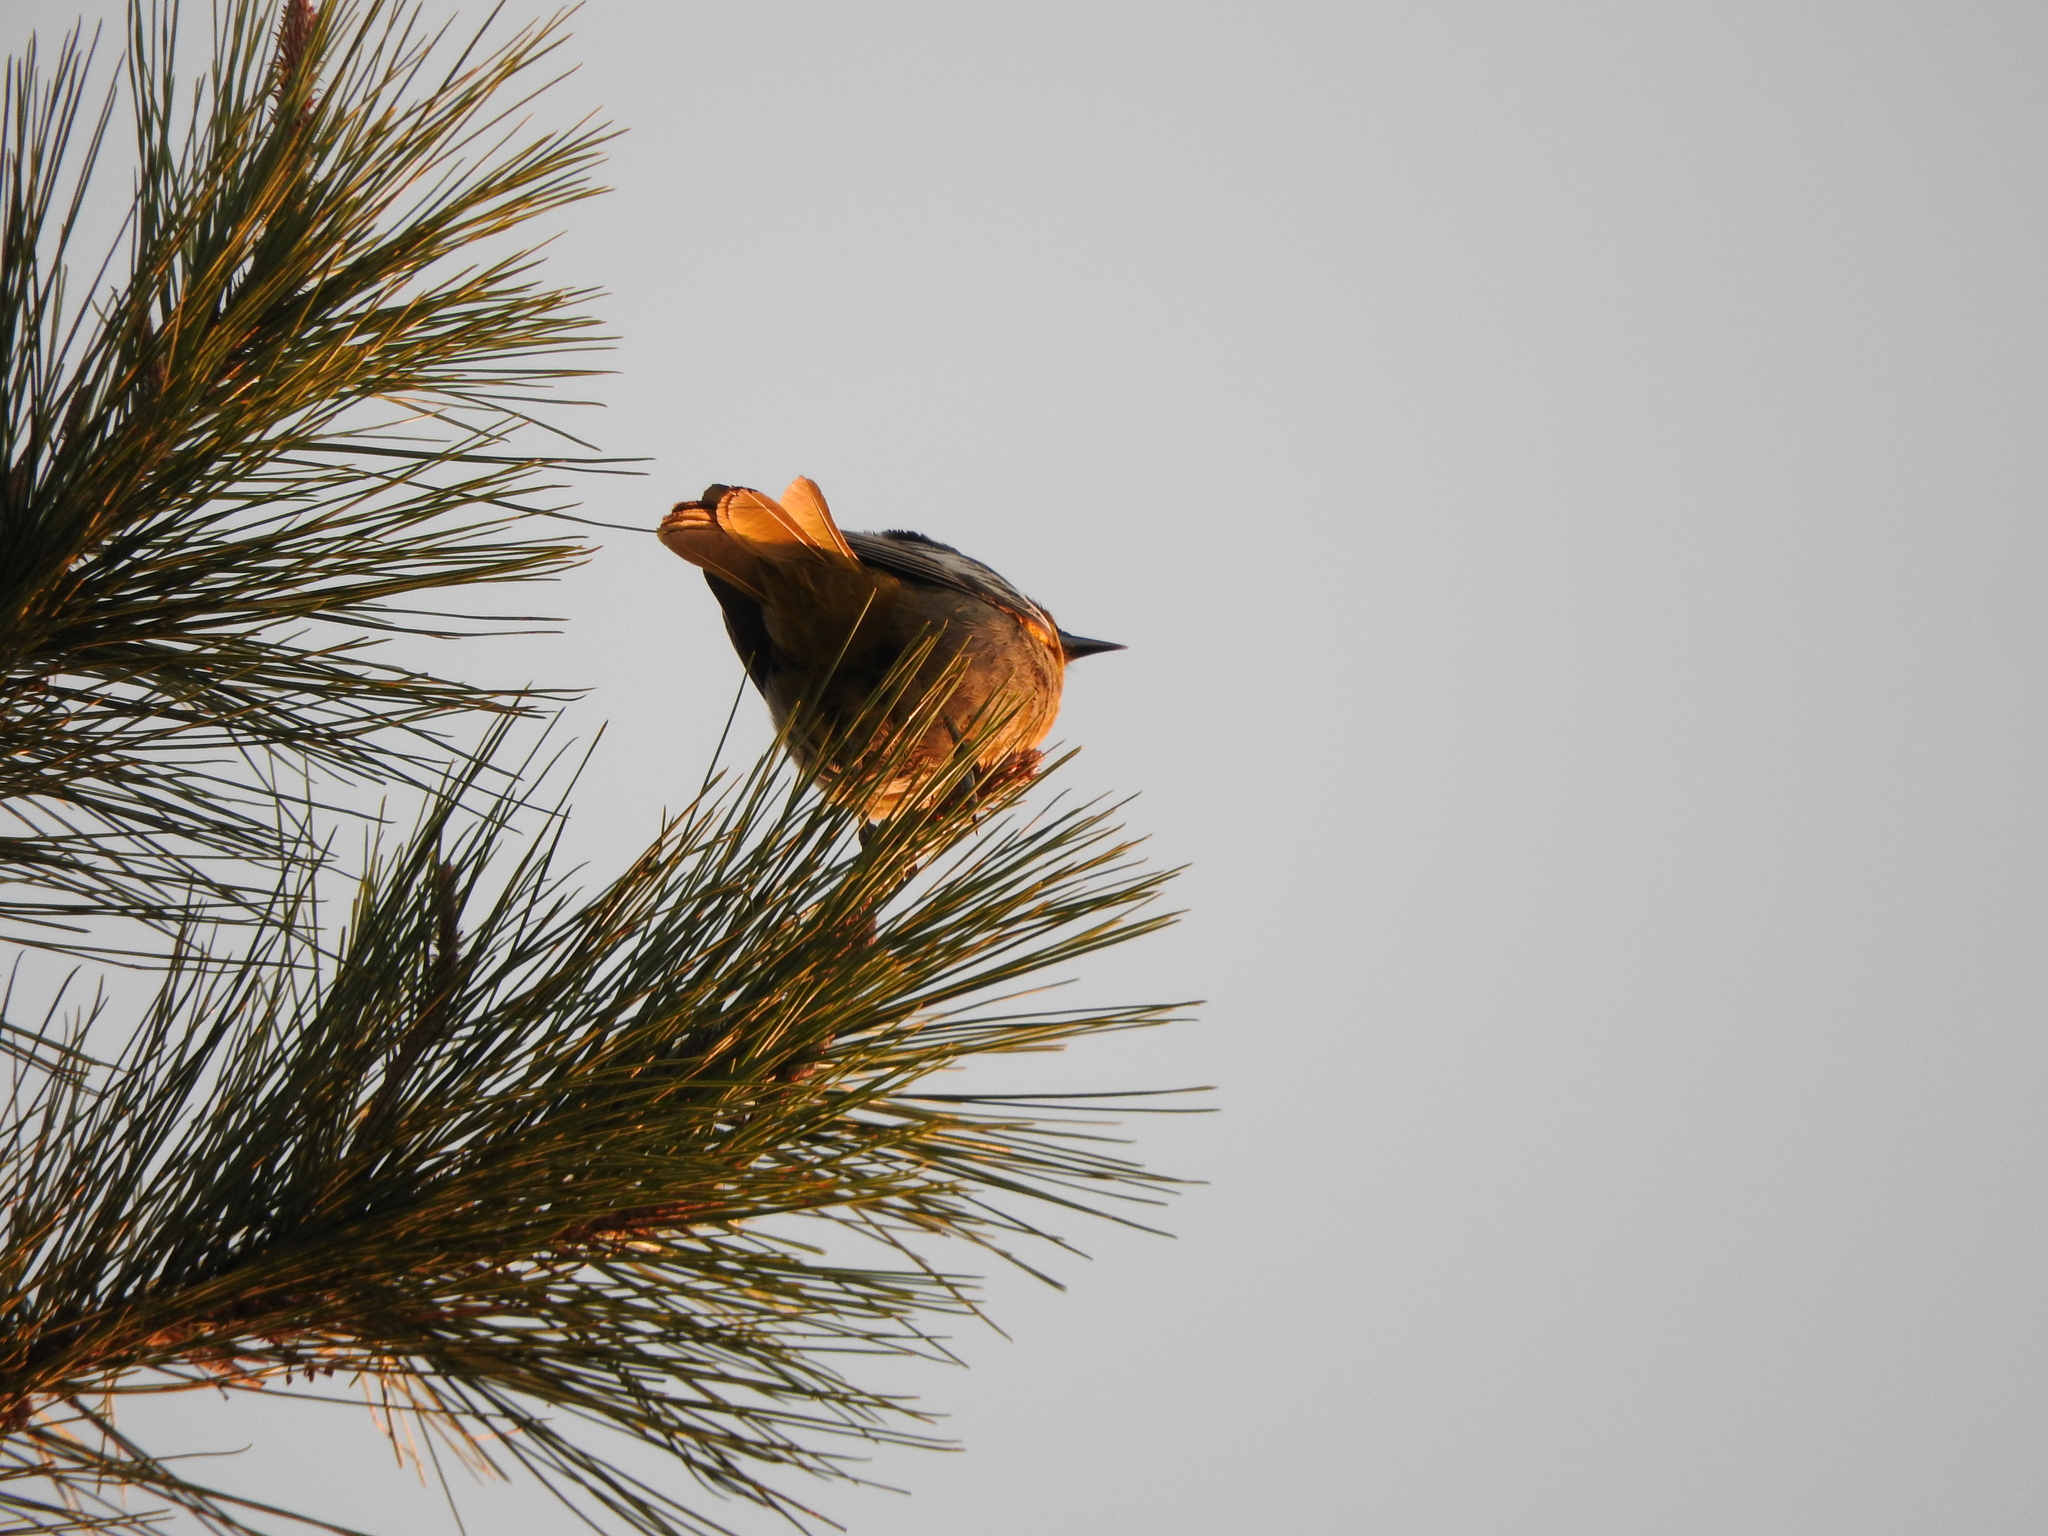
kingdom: Animalia
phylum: Chordata
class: Aves
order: Passeriformes
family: Icteridae
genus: Icterus
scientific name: Icterus abeillei
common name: Black-backed oriole
